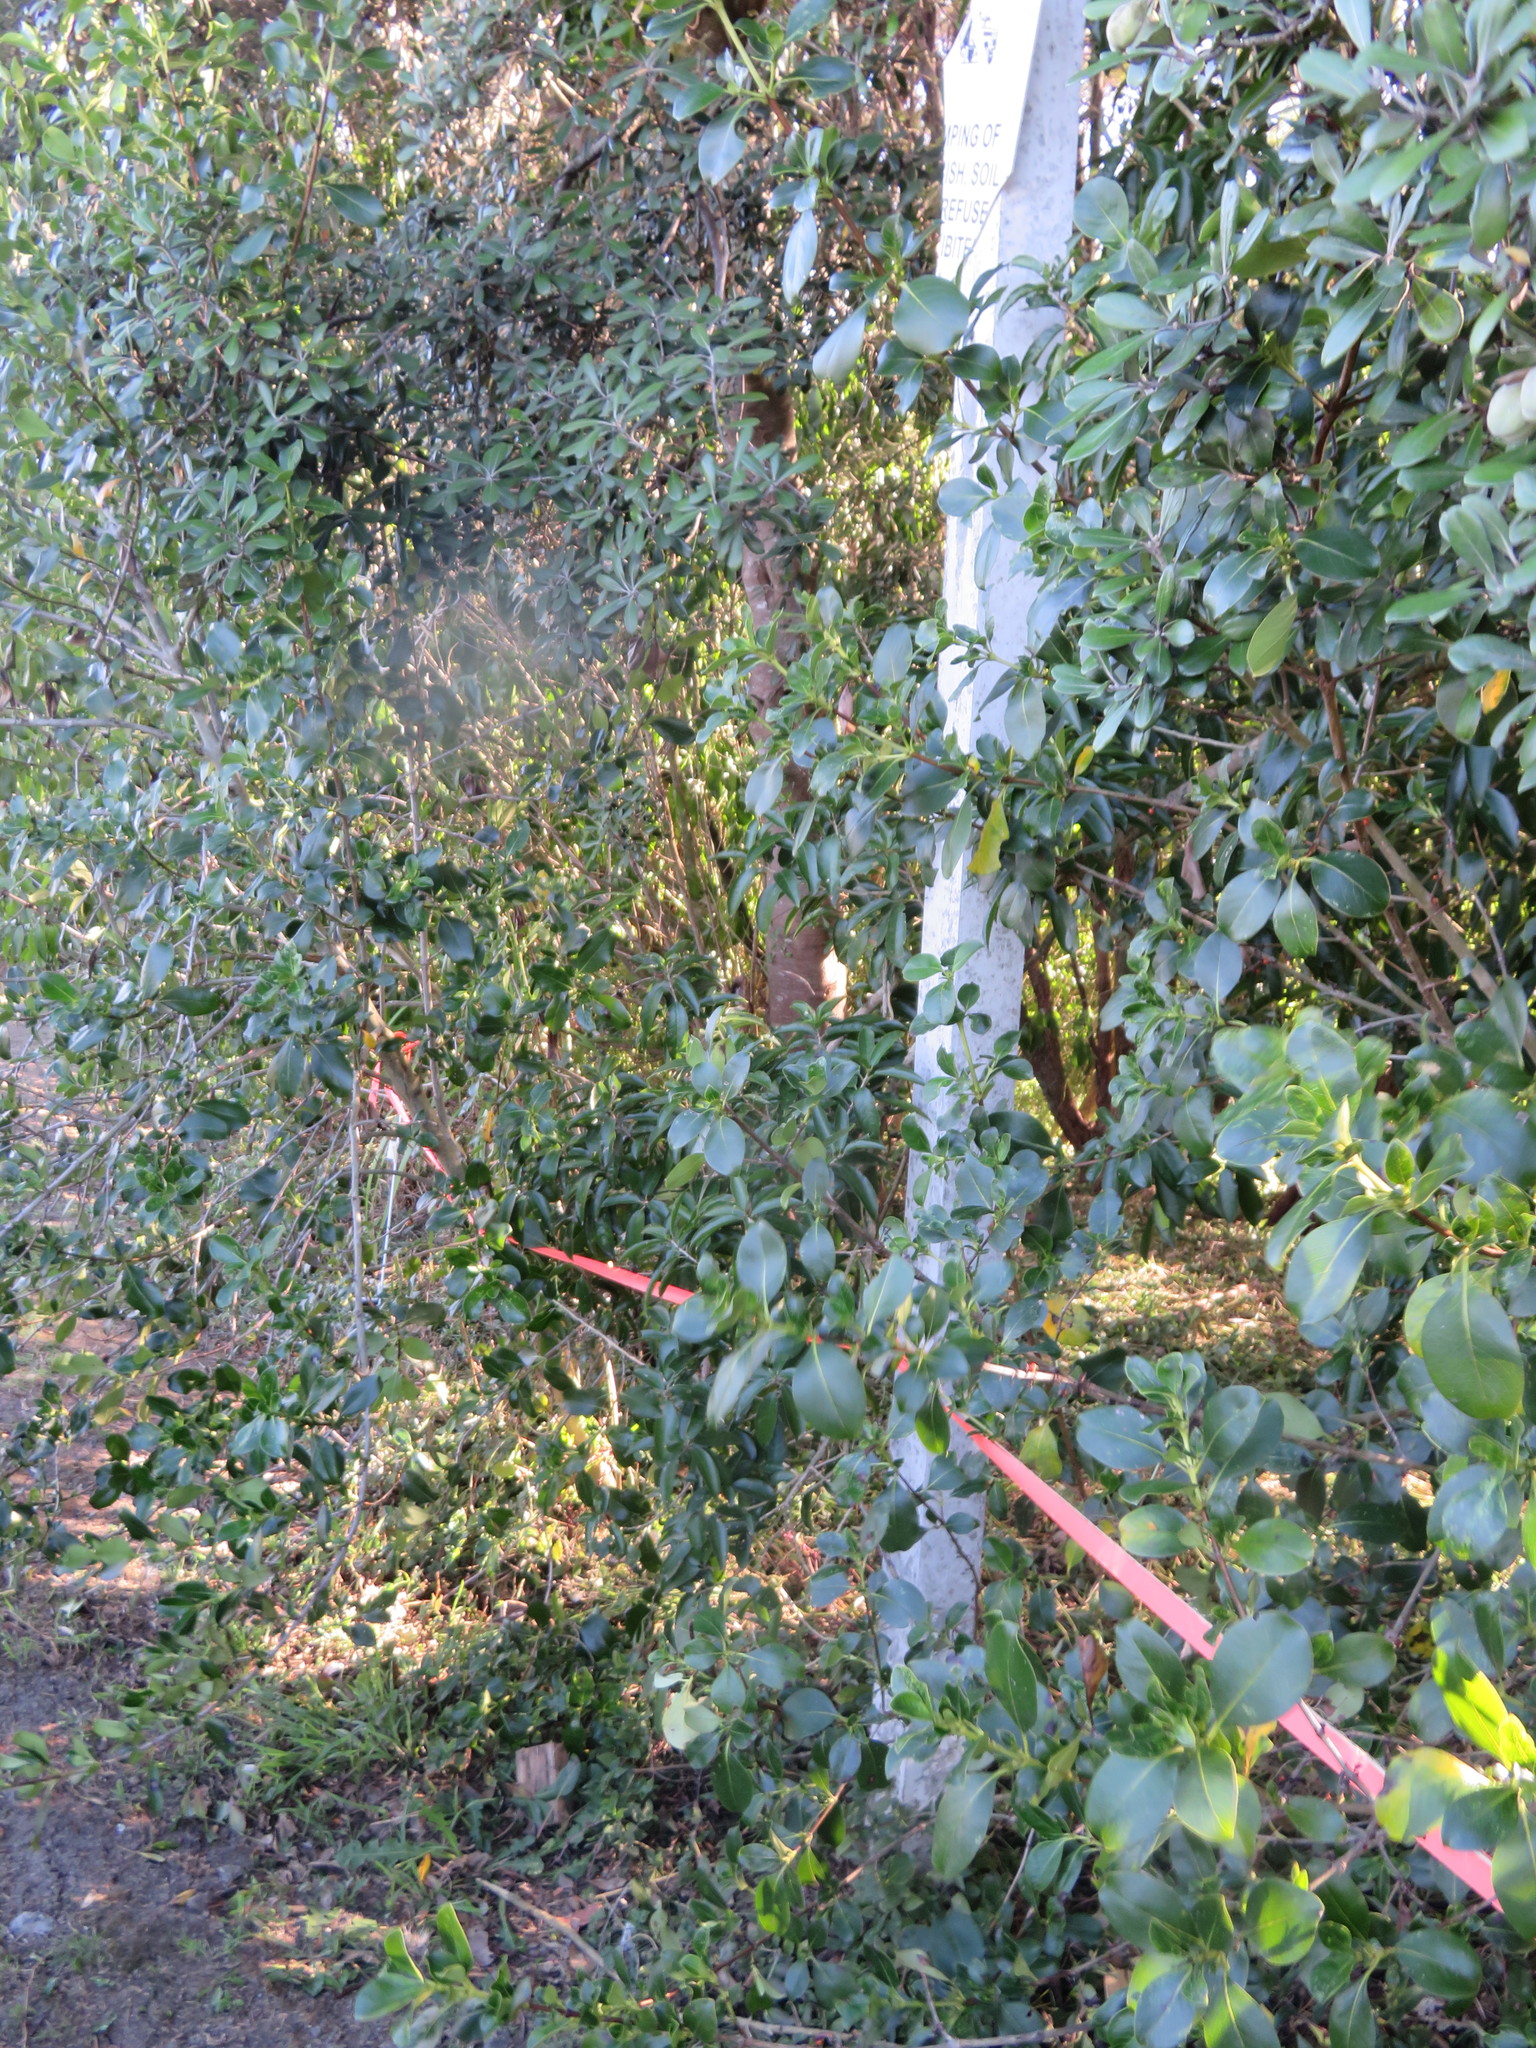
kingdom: Plantae
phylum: Tracheophyta
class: Magnoliopsida
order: Gentianales
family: Rubiaceae
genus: Coprosma
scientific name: Coprosma robusta
